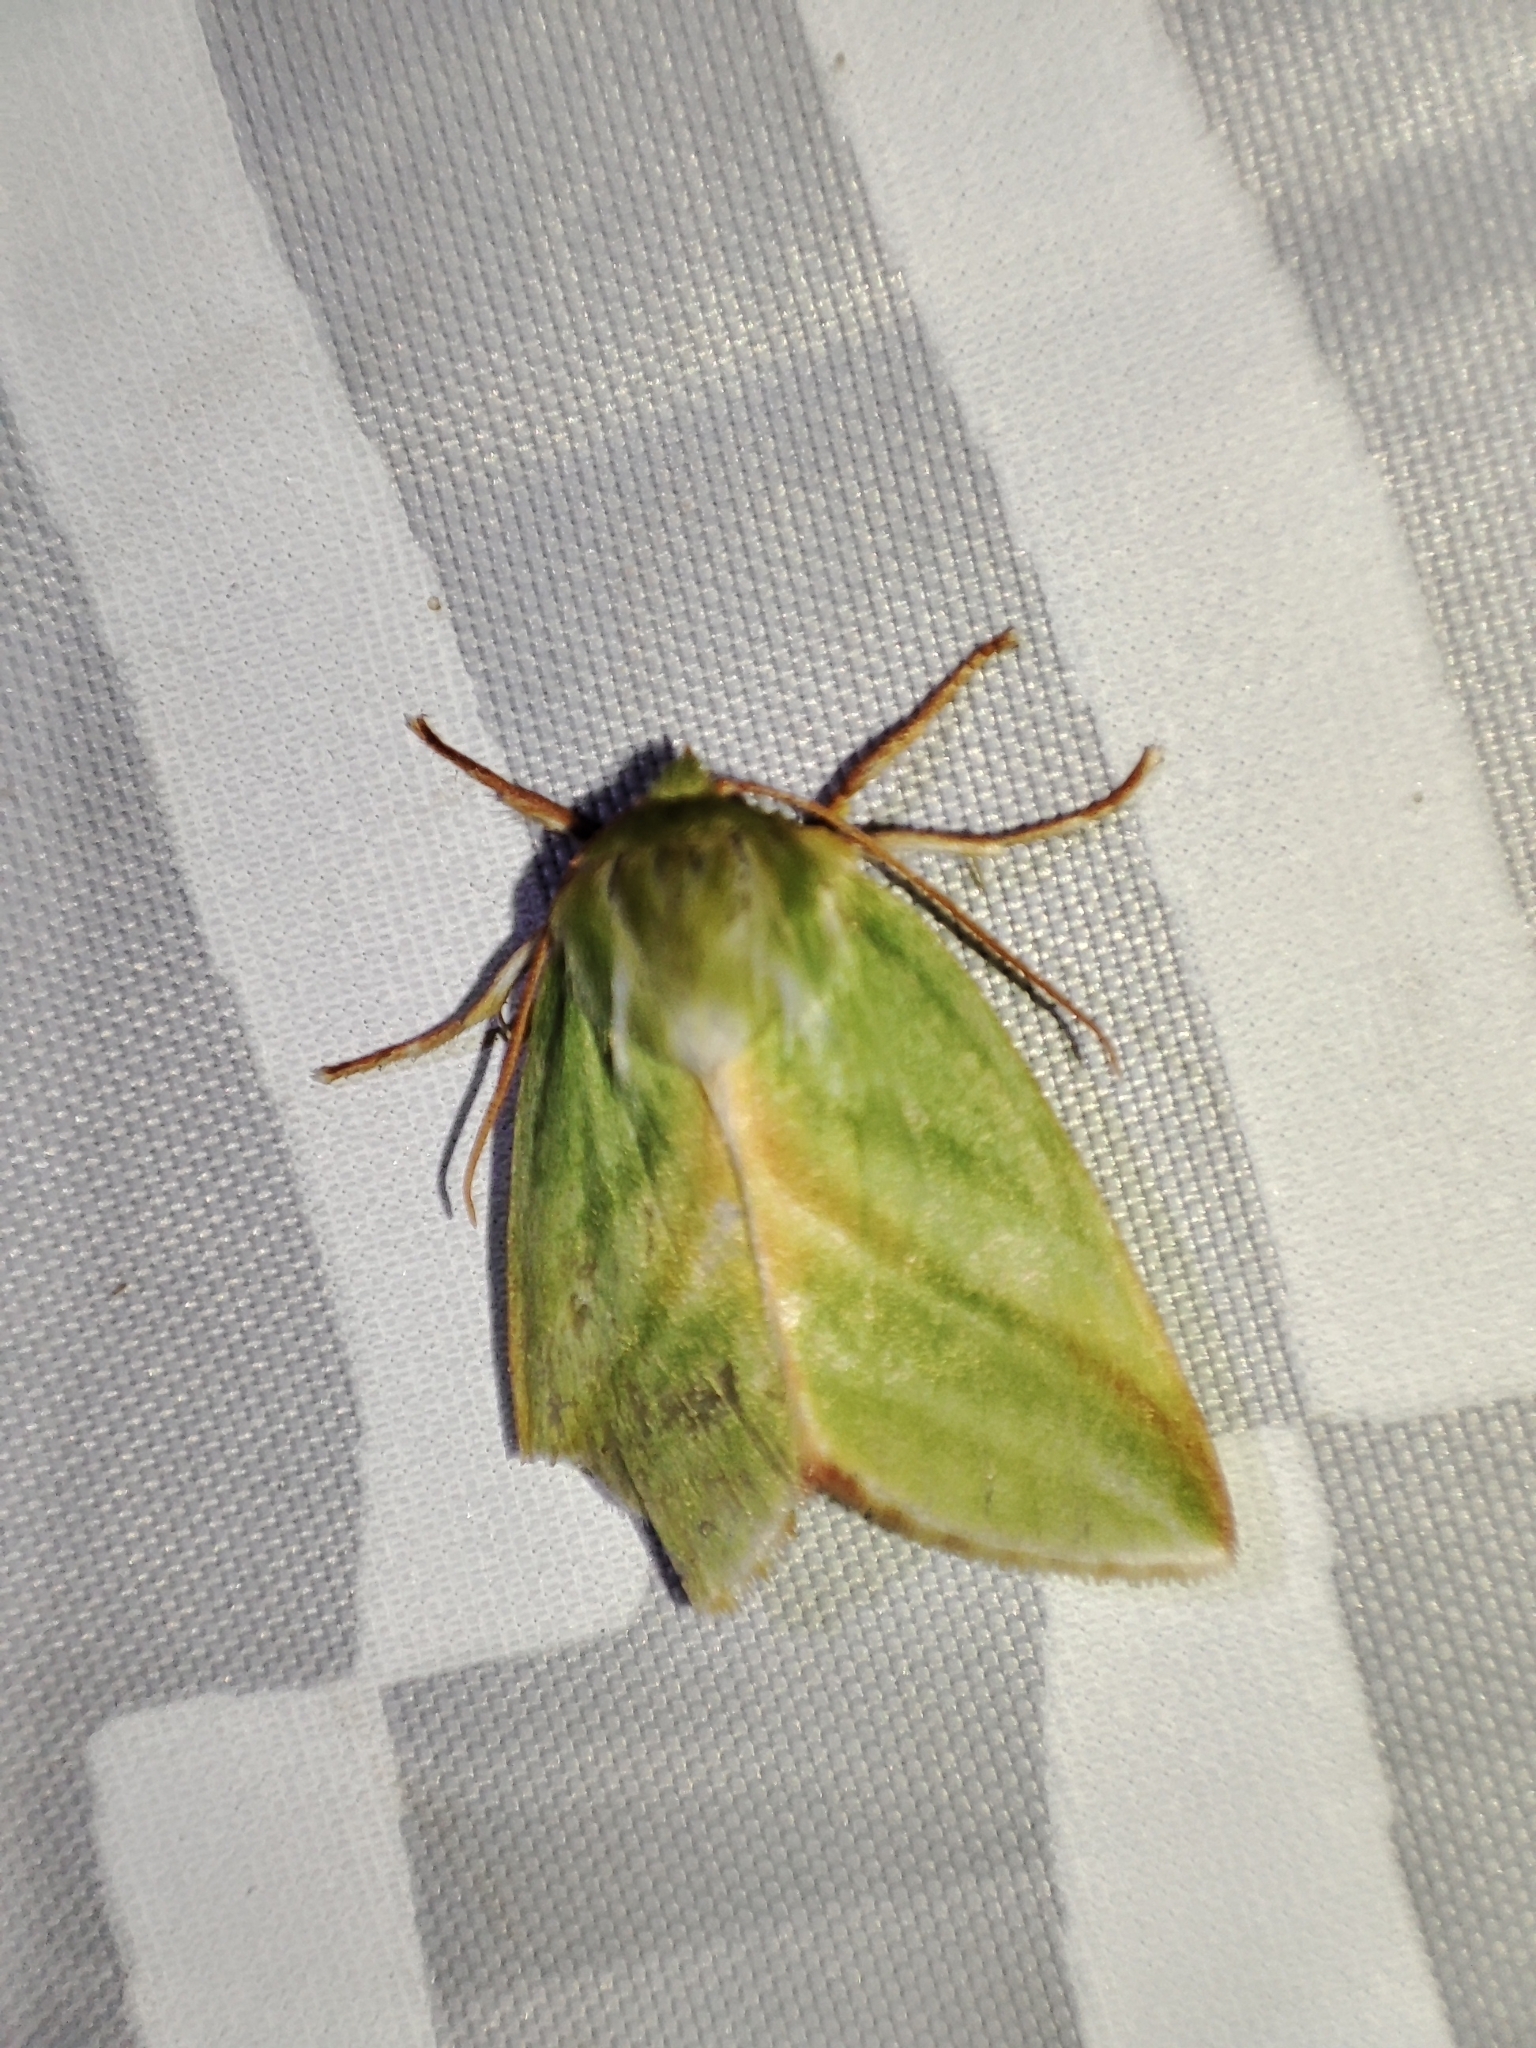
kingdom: Animalia
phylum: Arthropoda
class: Insecta
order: Lepidoptera
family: Nolidae
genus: Pseudoips
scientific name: Pseudoips prasinana
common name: Green silver-lines
